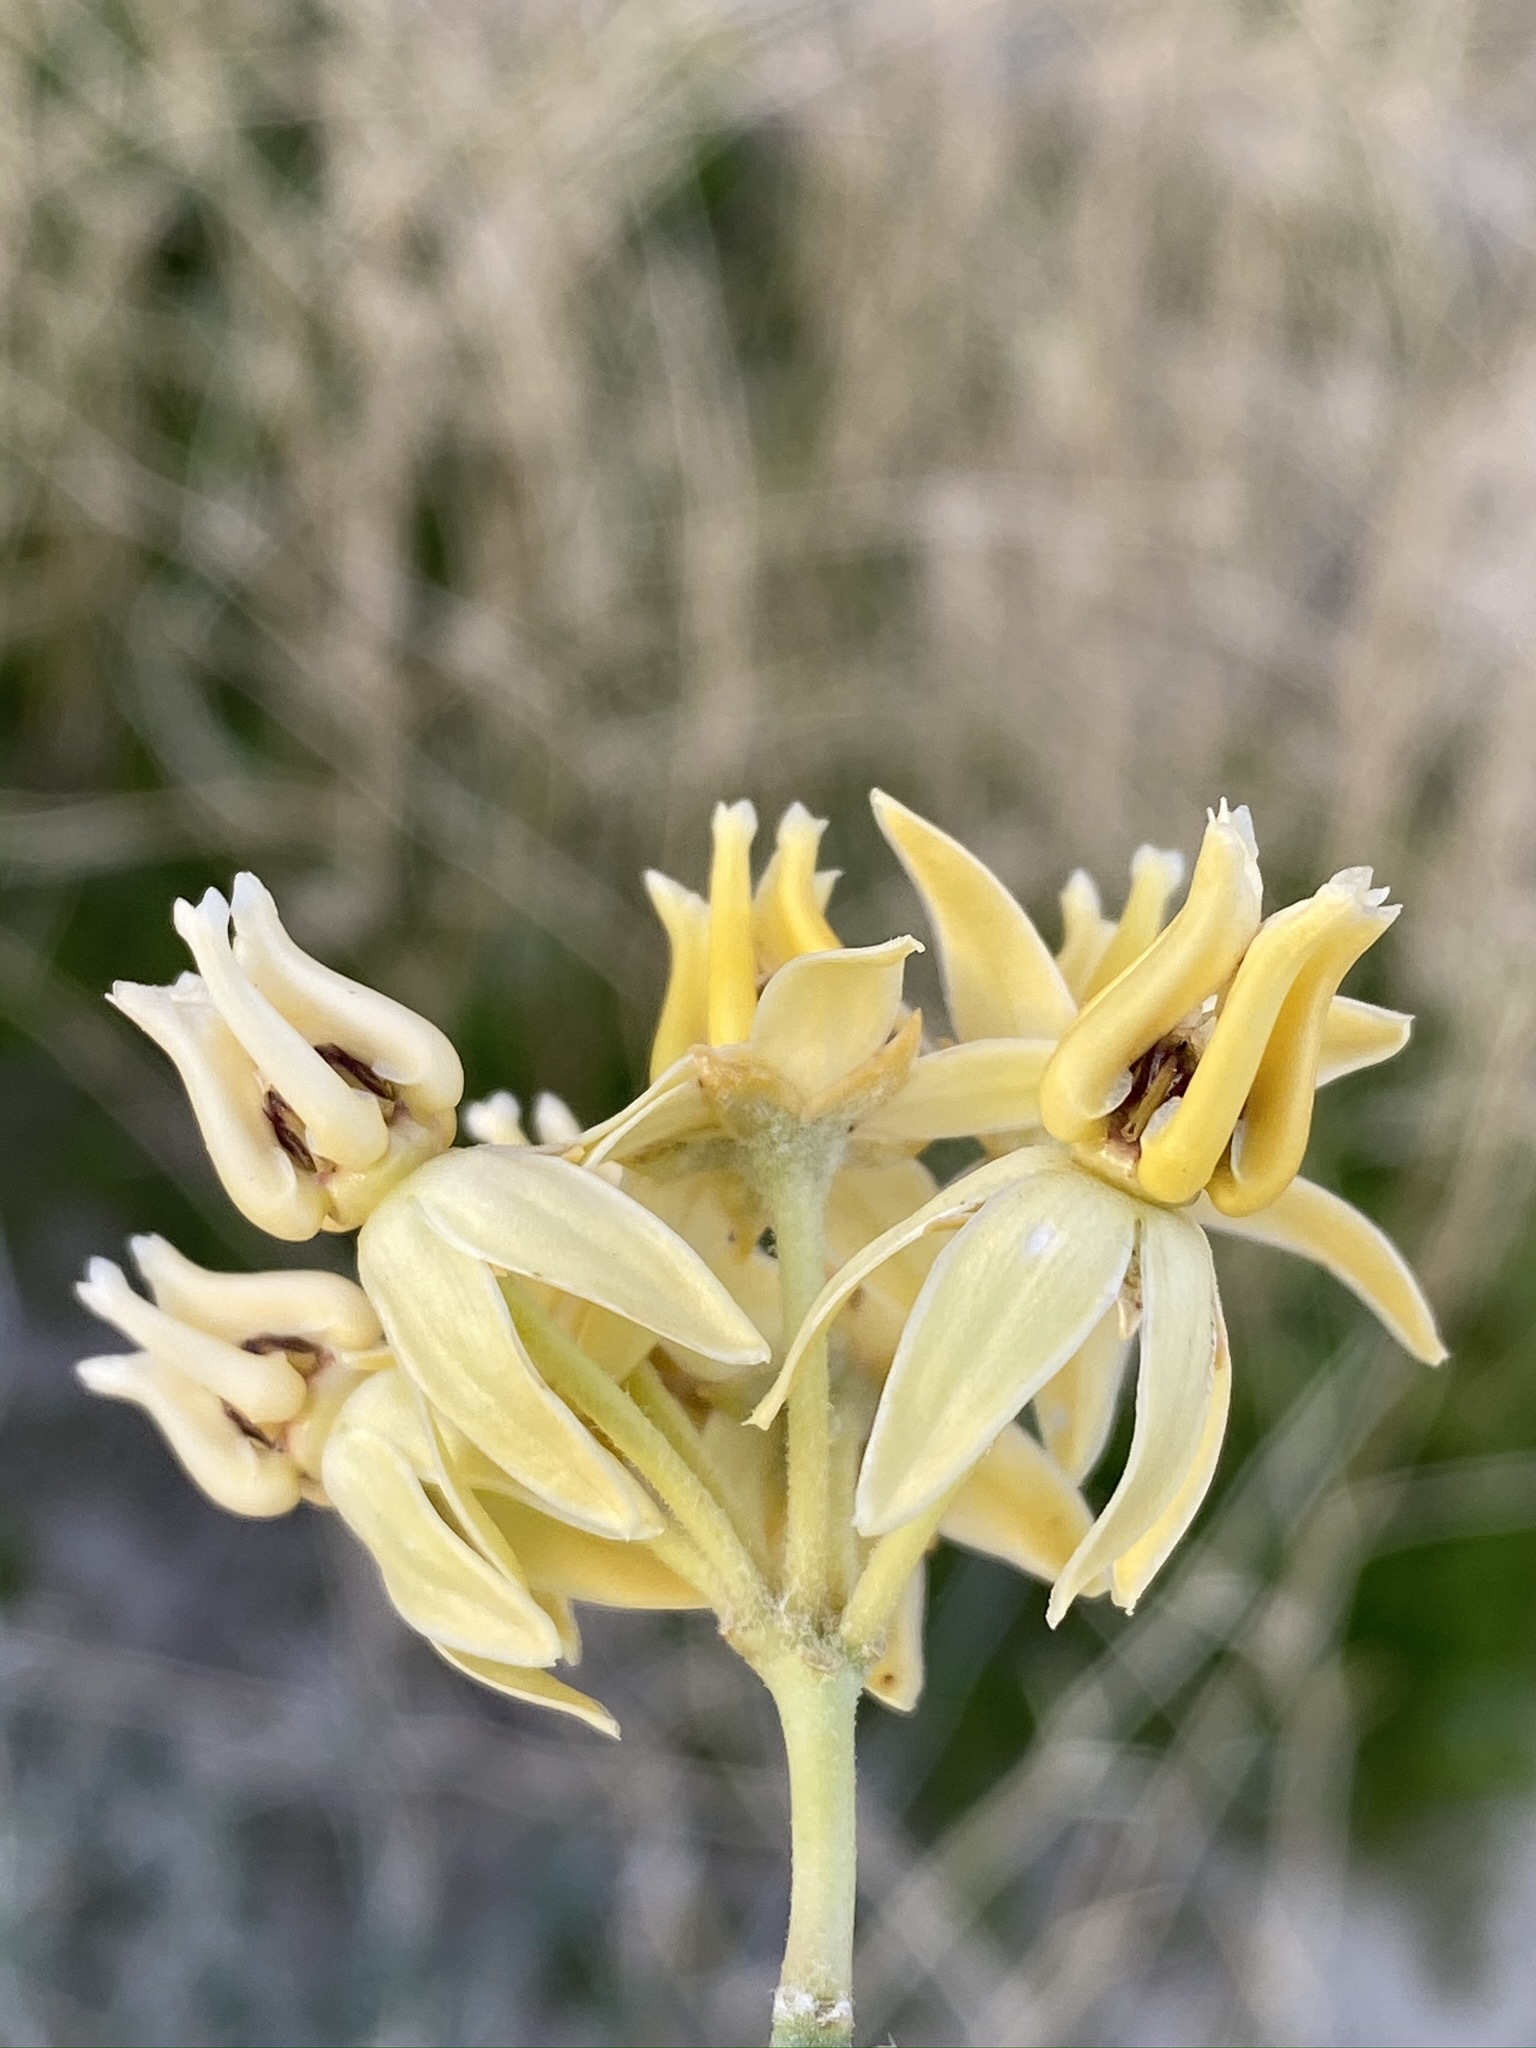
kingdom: Plantae
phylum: Tracheophyta
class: Magnoliopsida
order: Gentianales
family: Apocynaceae
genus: Asclepias
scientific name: Asclepias subulata
